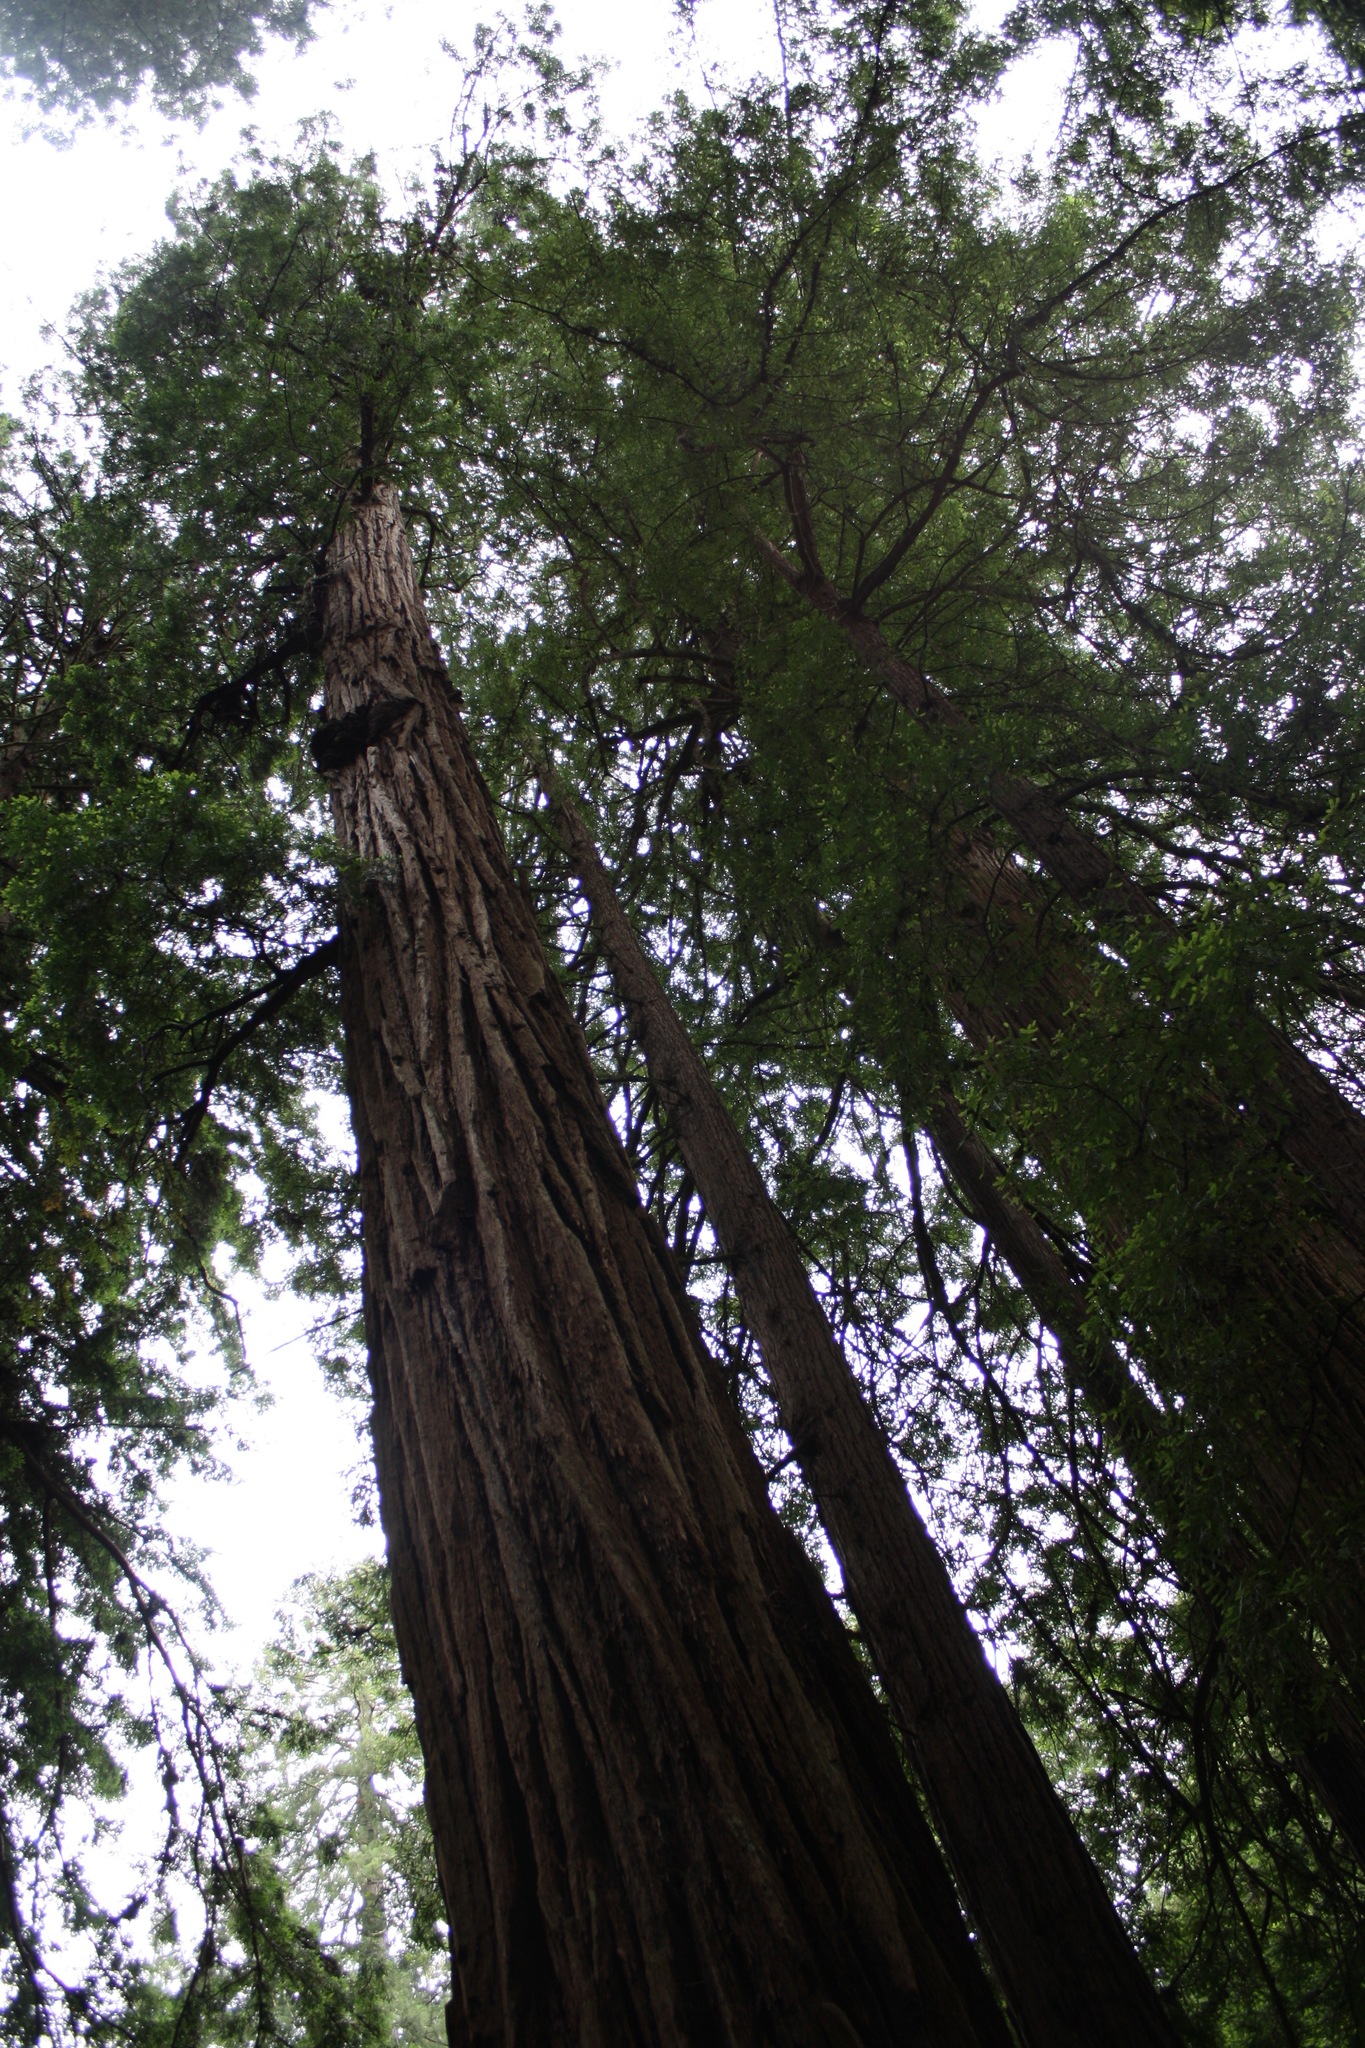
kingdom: Plantae
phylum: Tracheophyta
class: Pinopsida
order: Pinales
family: Cupressaceae
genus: Sequoia
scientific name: Sequoia sempervirens
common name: Coast redwood
